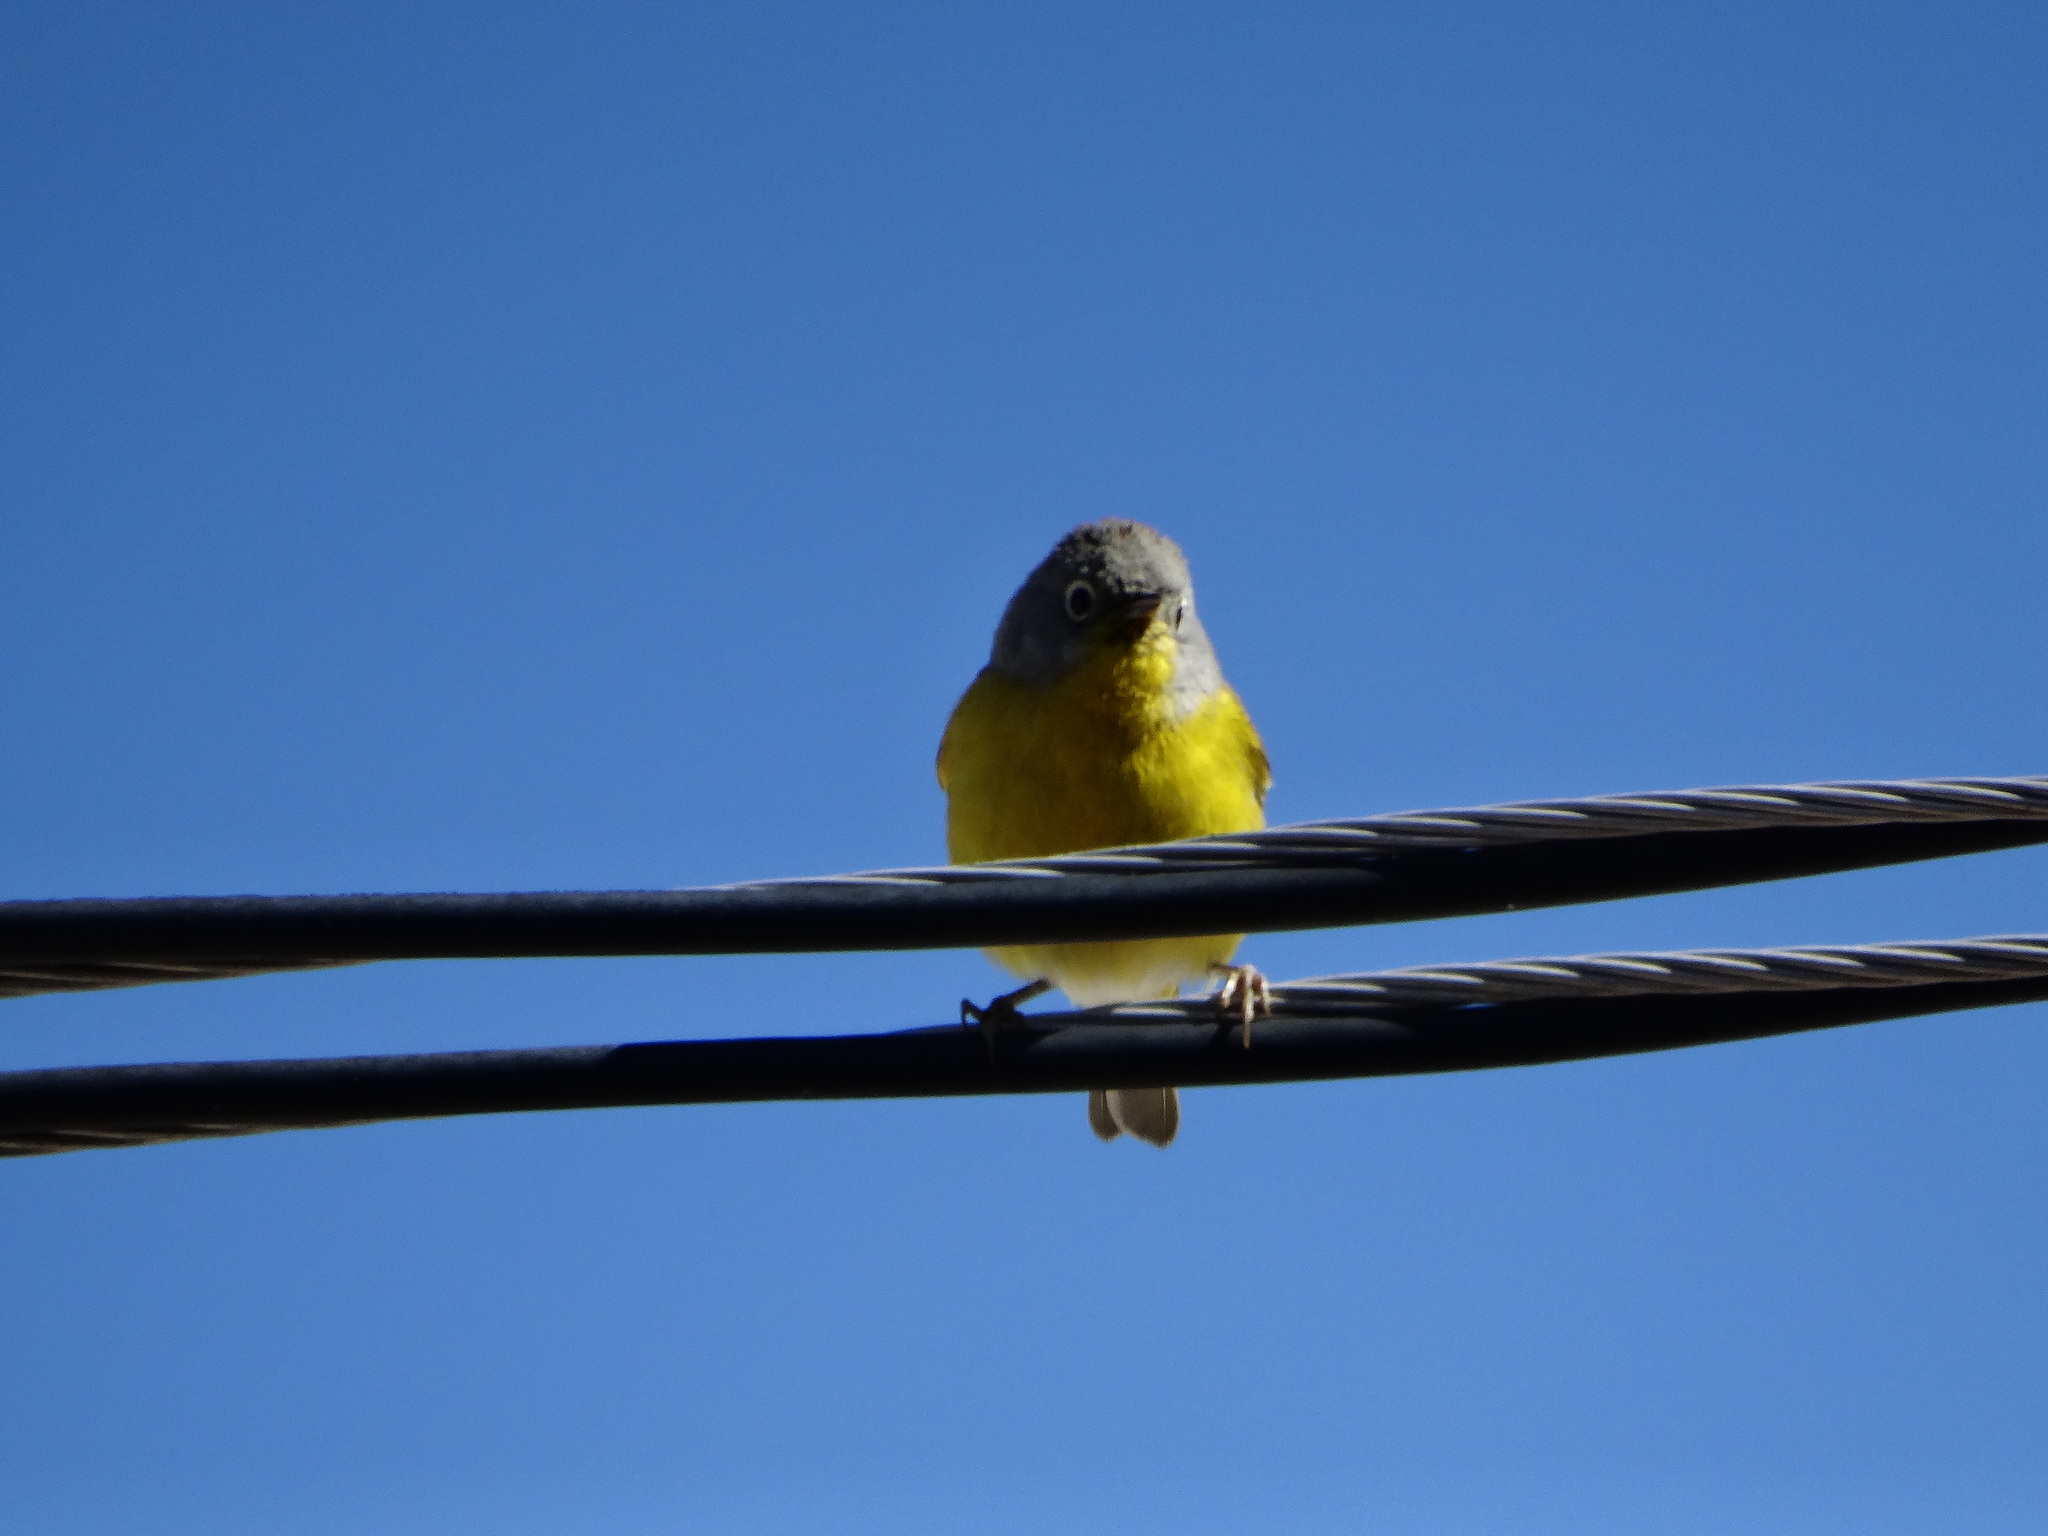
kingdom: Animalia
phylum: Chordata
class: Aves
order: Passeriformes
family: Parulidae
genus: Leiothlypis
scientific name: Leiothlypis ruficapilla
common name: Nashville warbler
